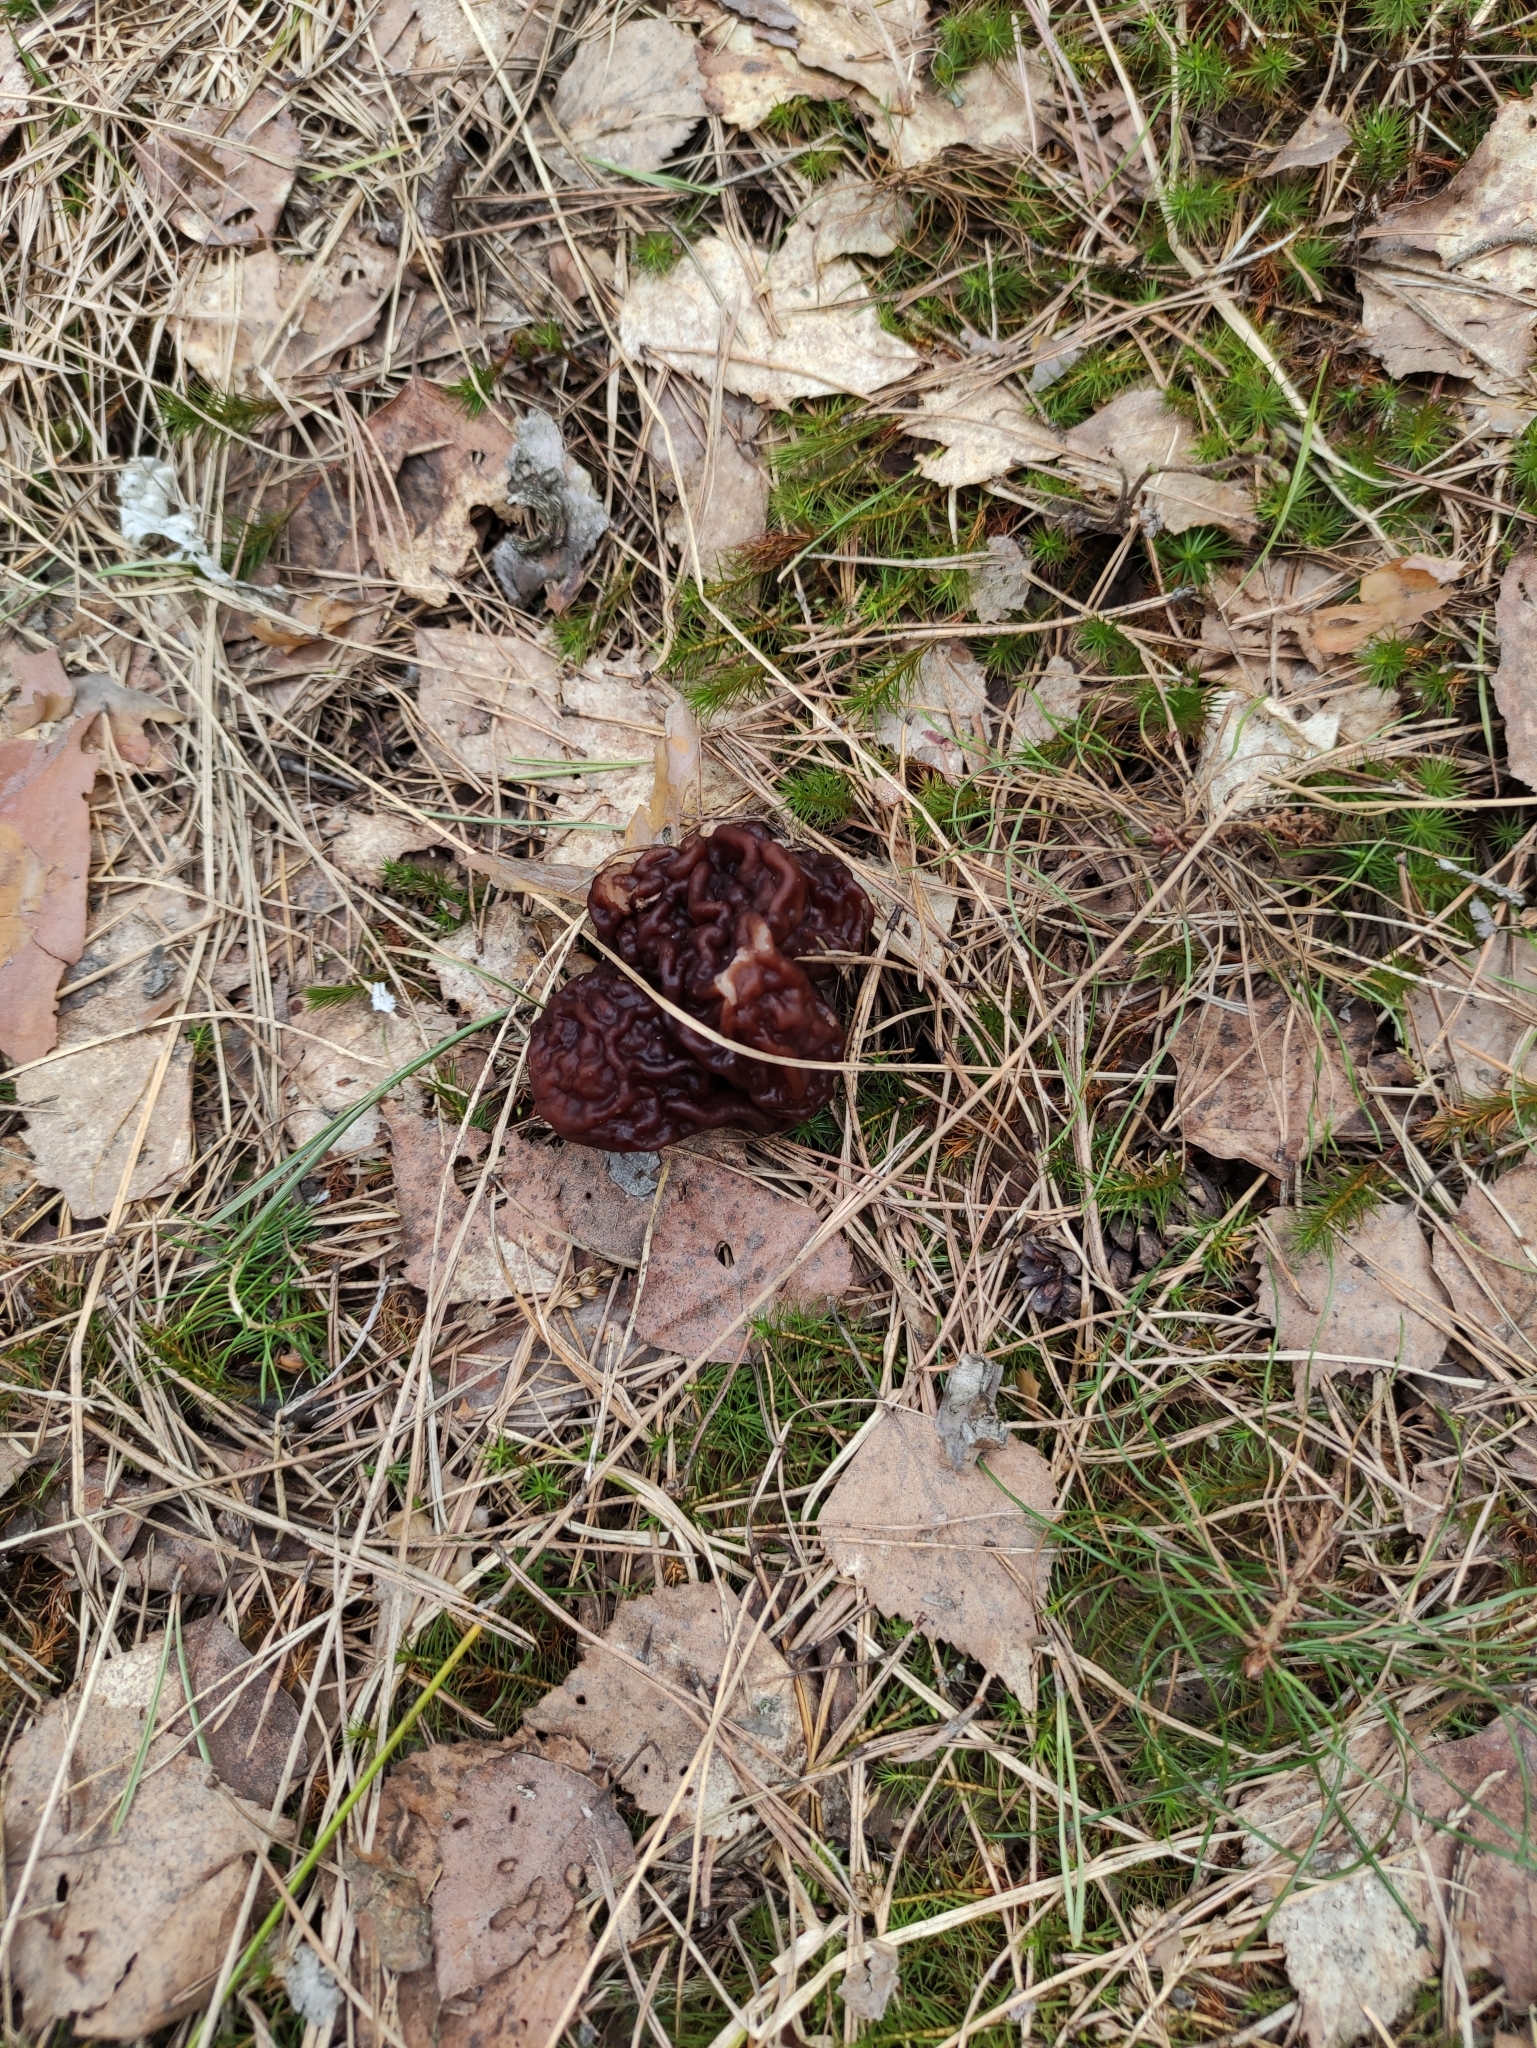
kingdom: Fungi
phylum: Ascomycota
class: Pezizomycetes
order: Pezizales
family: Discinaceae
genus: Gyromitra
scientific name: Gyromitra esculenta
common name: False morel
